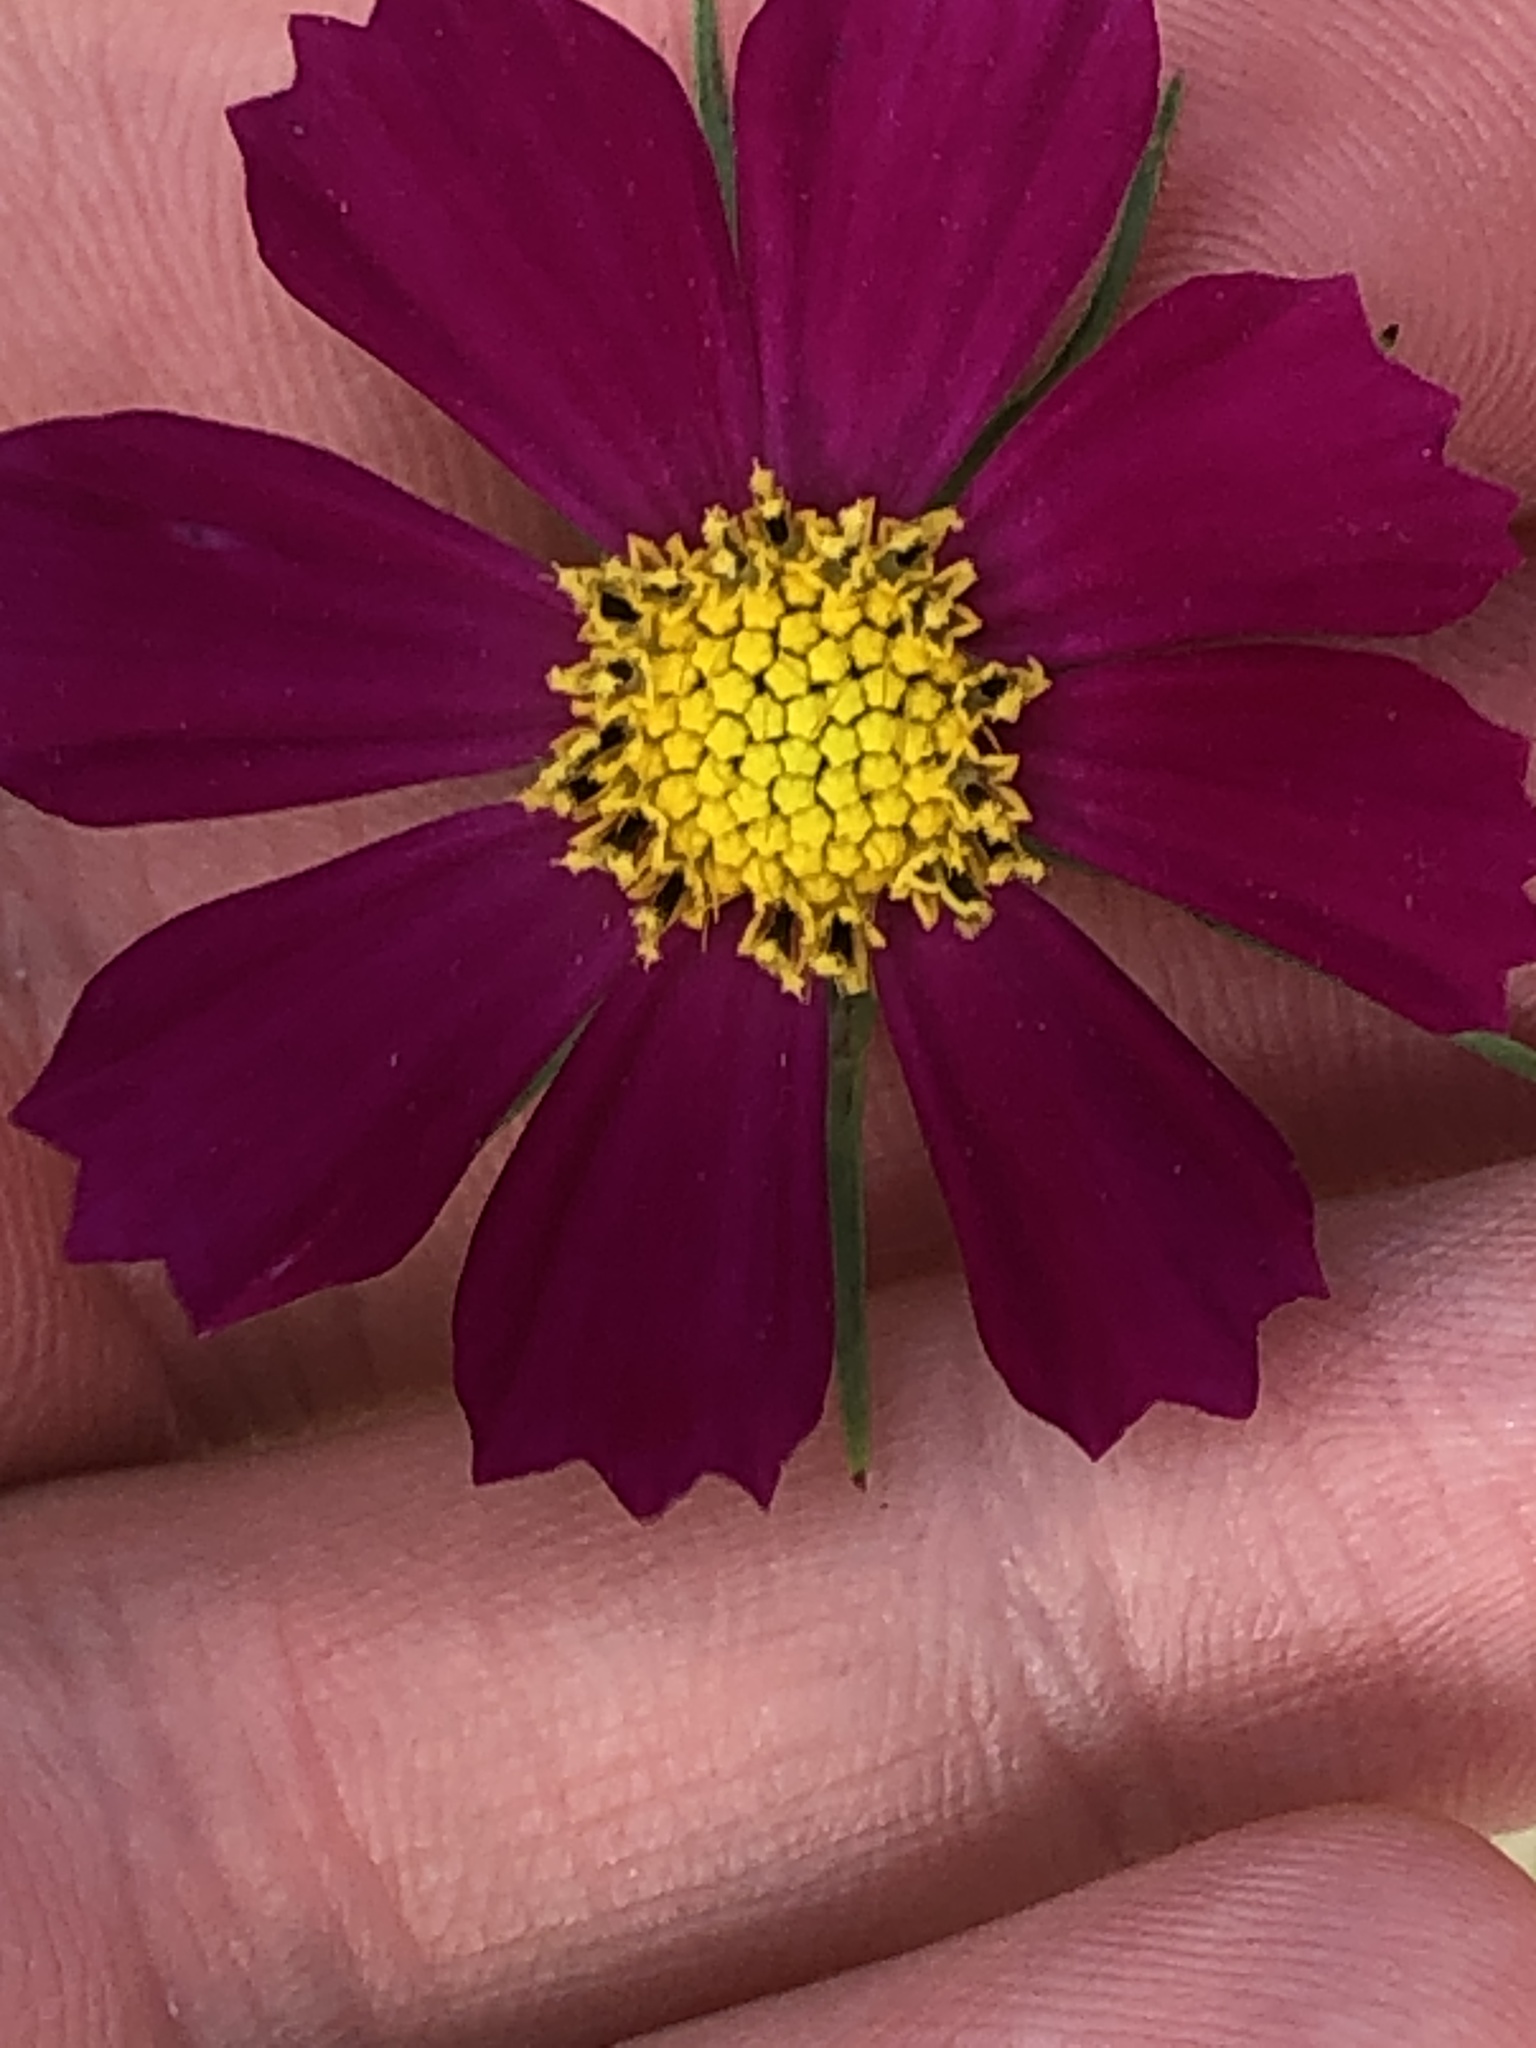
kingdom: Plantae
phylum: Tracheophyta
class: Magnoliopsida
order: Asterales
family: Asteraceae
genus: Cosmos
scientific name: Cosmos bipinnatus
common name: Garden cosmos
